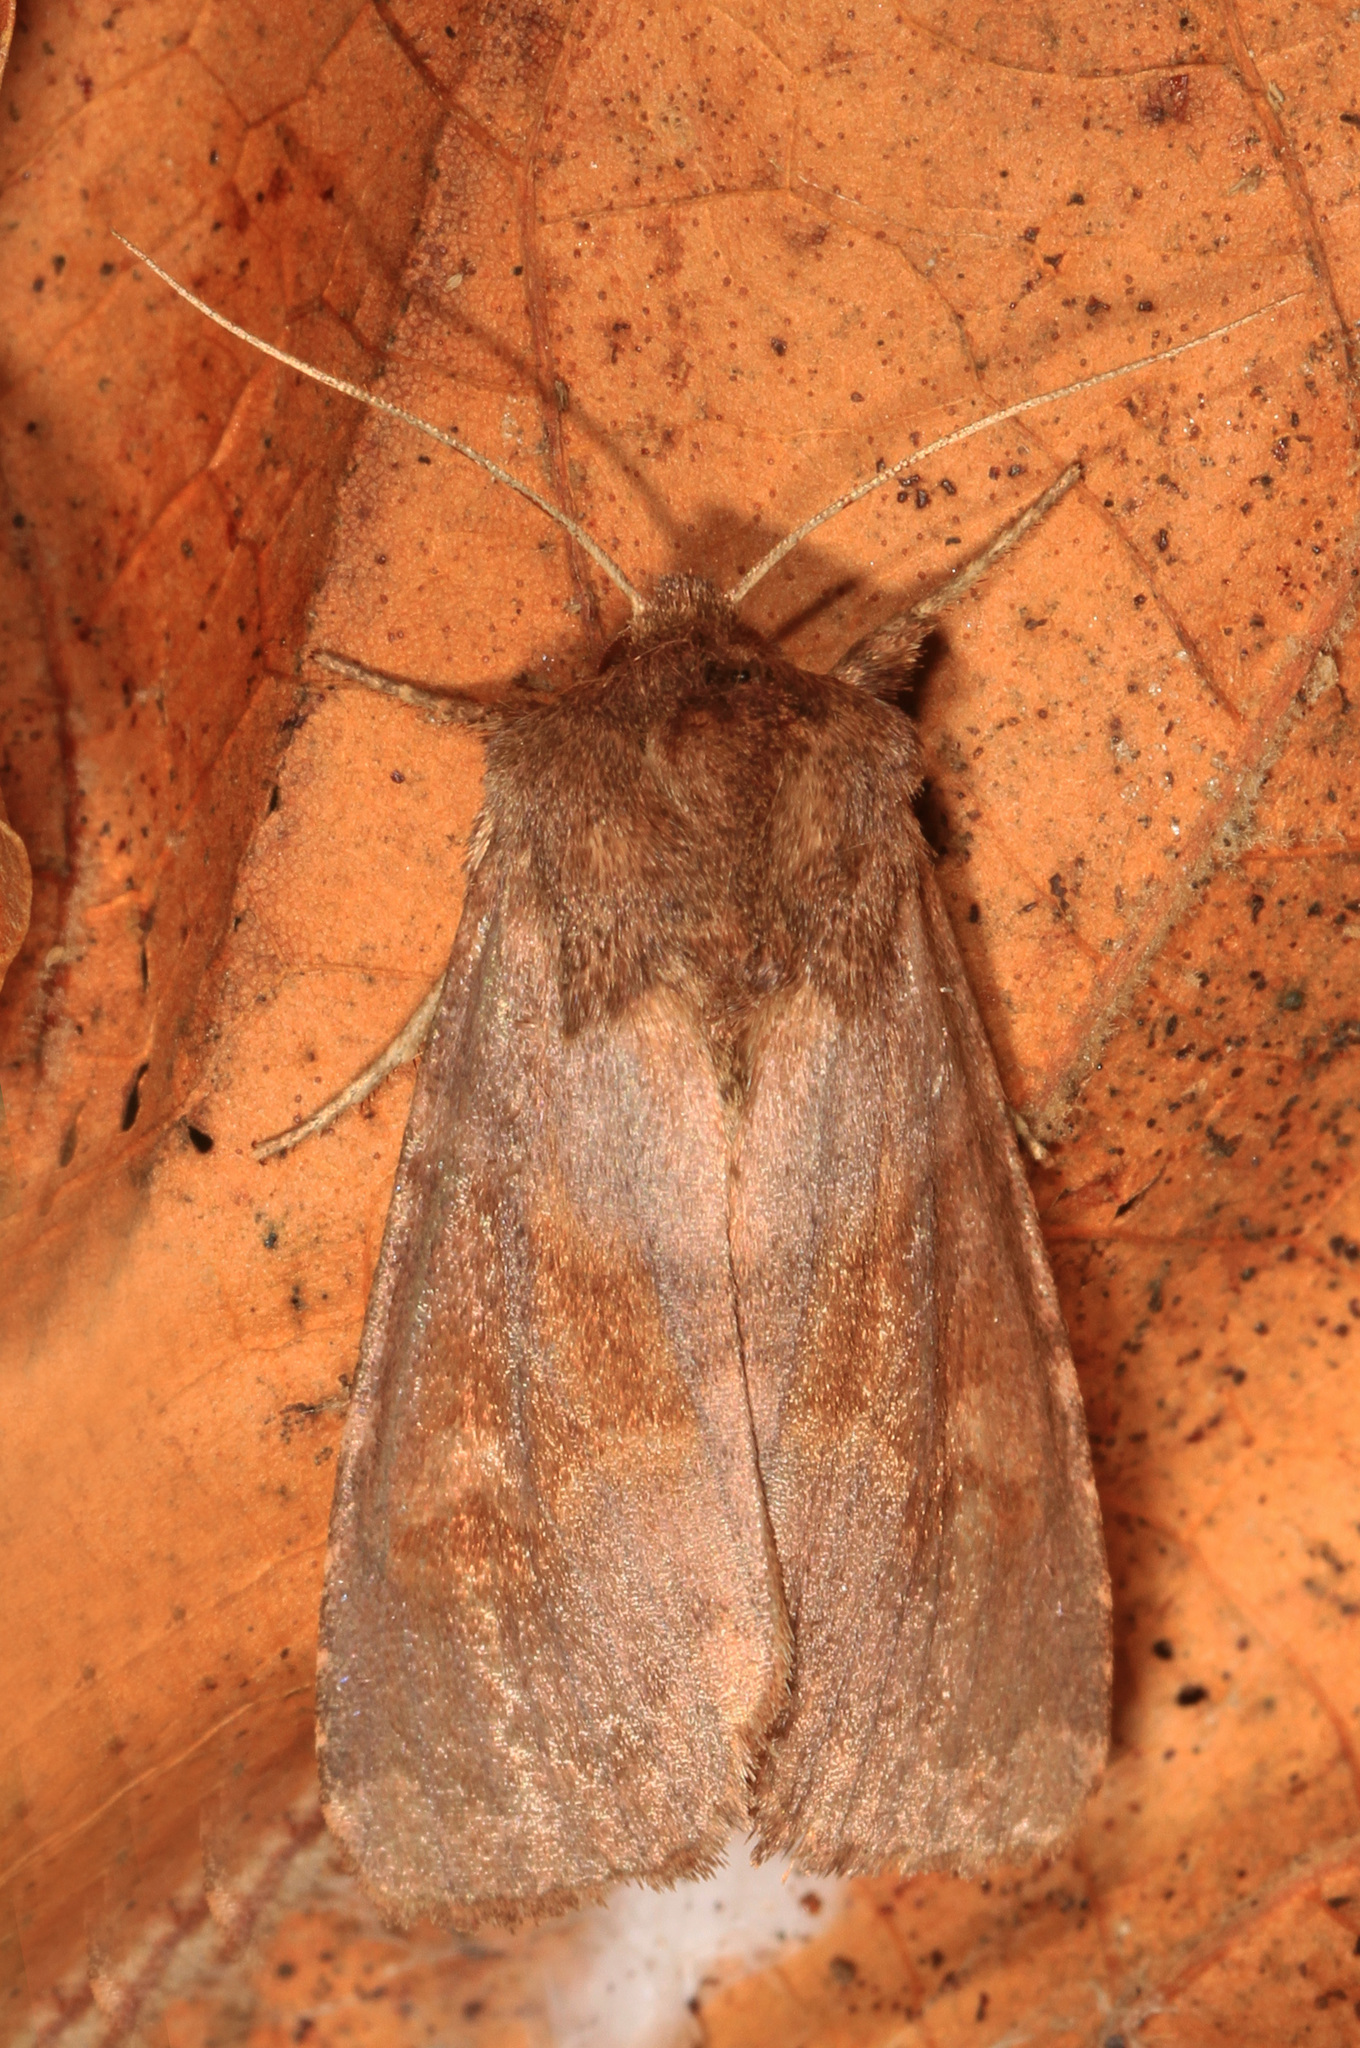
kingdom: Animalia
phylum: Arthropoda
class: Insecta
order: Lepidoptera
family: Noctuidae
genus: Nephelodes
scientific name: Nephelodes minians
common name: Bronzed cutworm
